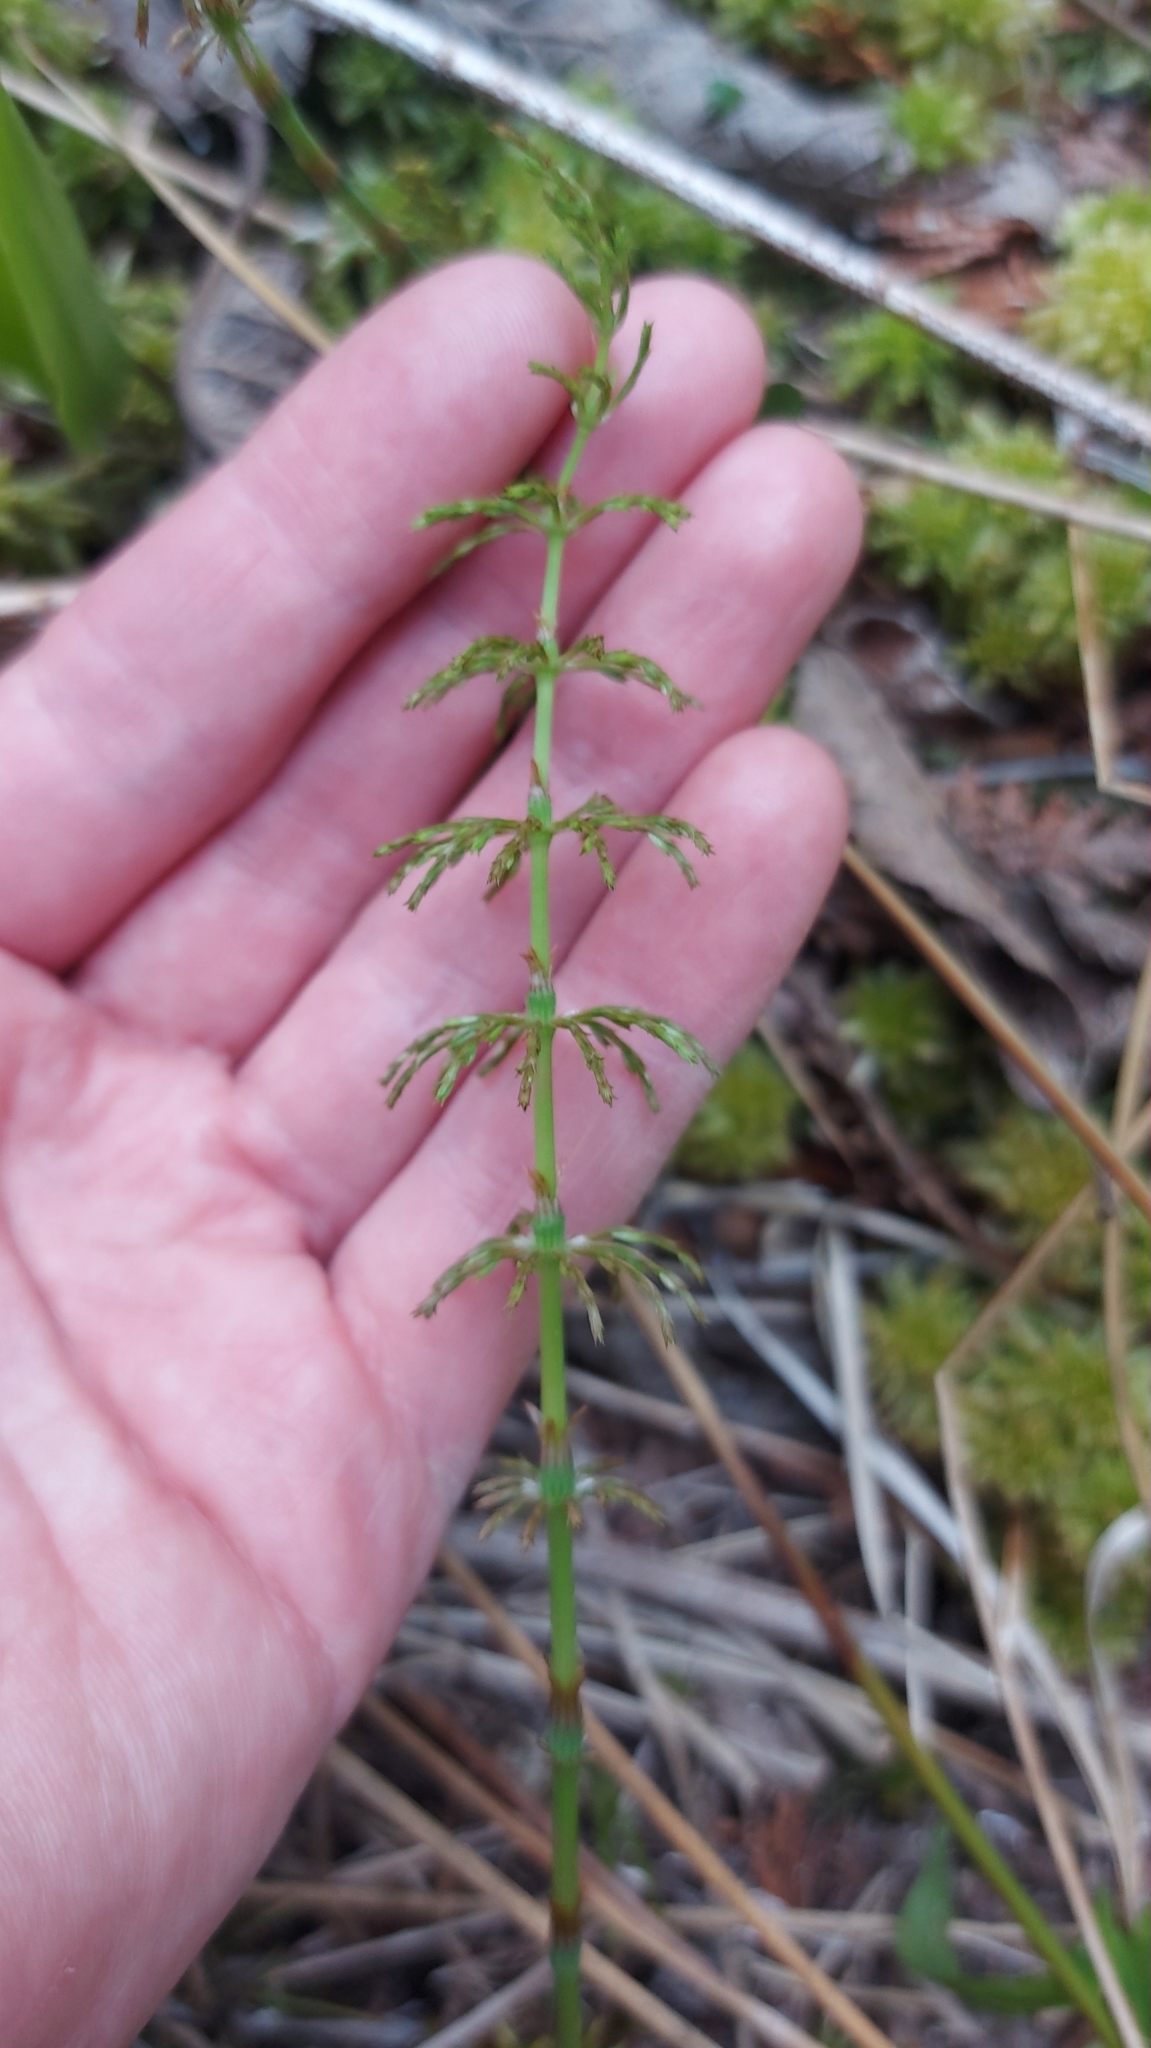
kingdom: Plantae
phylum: Tracheophyta
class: Polypodiopsida
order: Equisetales
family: Equisetaceae
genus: Equisetum
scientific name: Equisetum sylvaticum
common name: Wood horsetail
